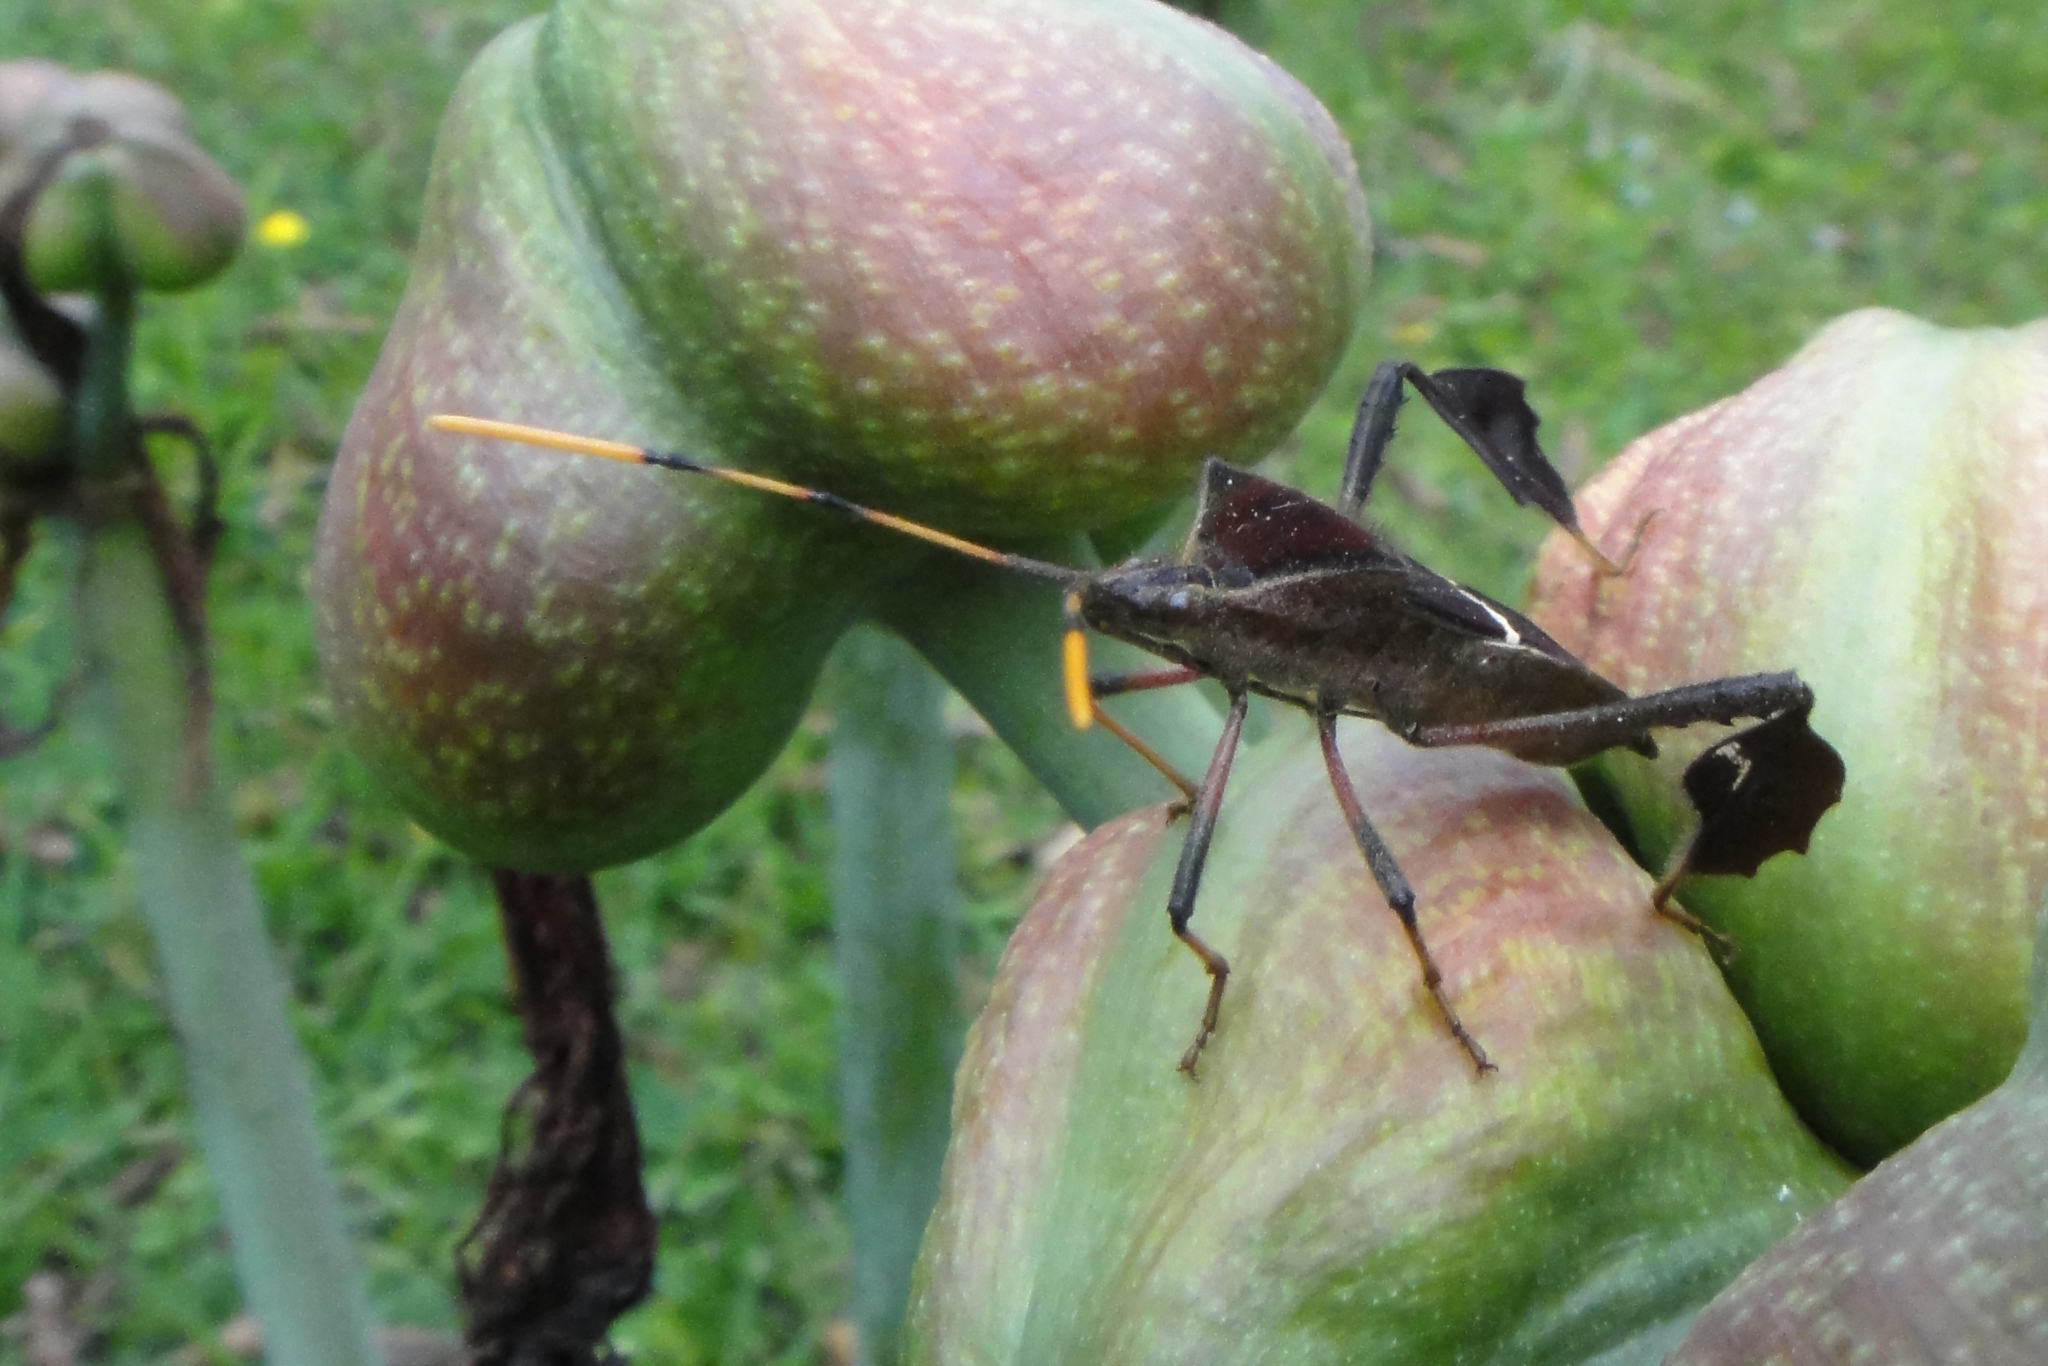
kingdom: Animalia
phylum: Arthropoda
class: Insecta
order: Hemiptera
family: Coreidae
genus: Leptoglossus
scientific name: Leptoglossus cartagoensis
